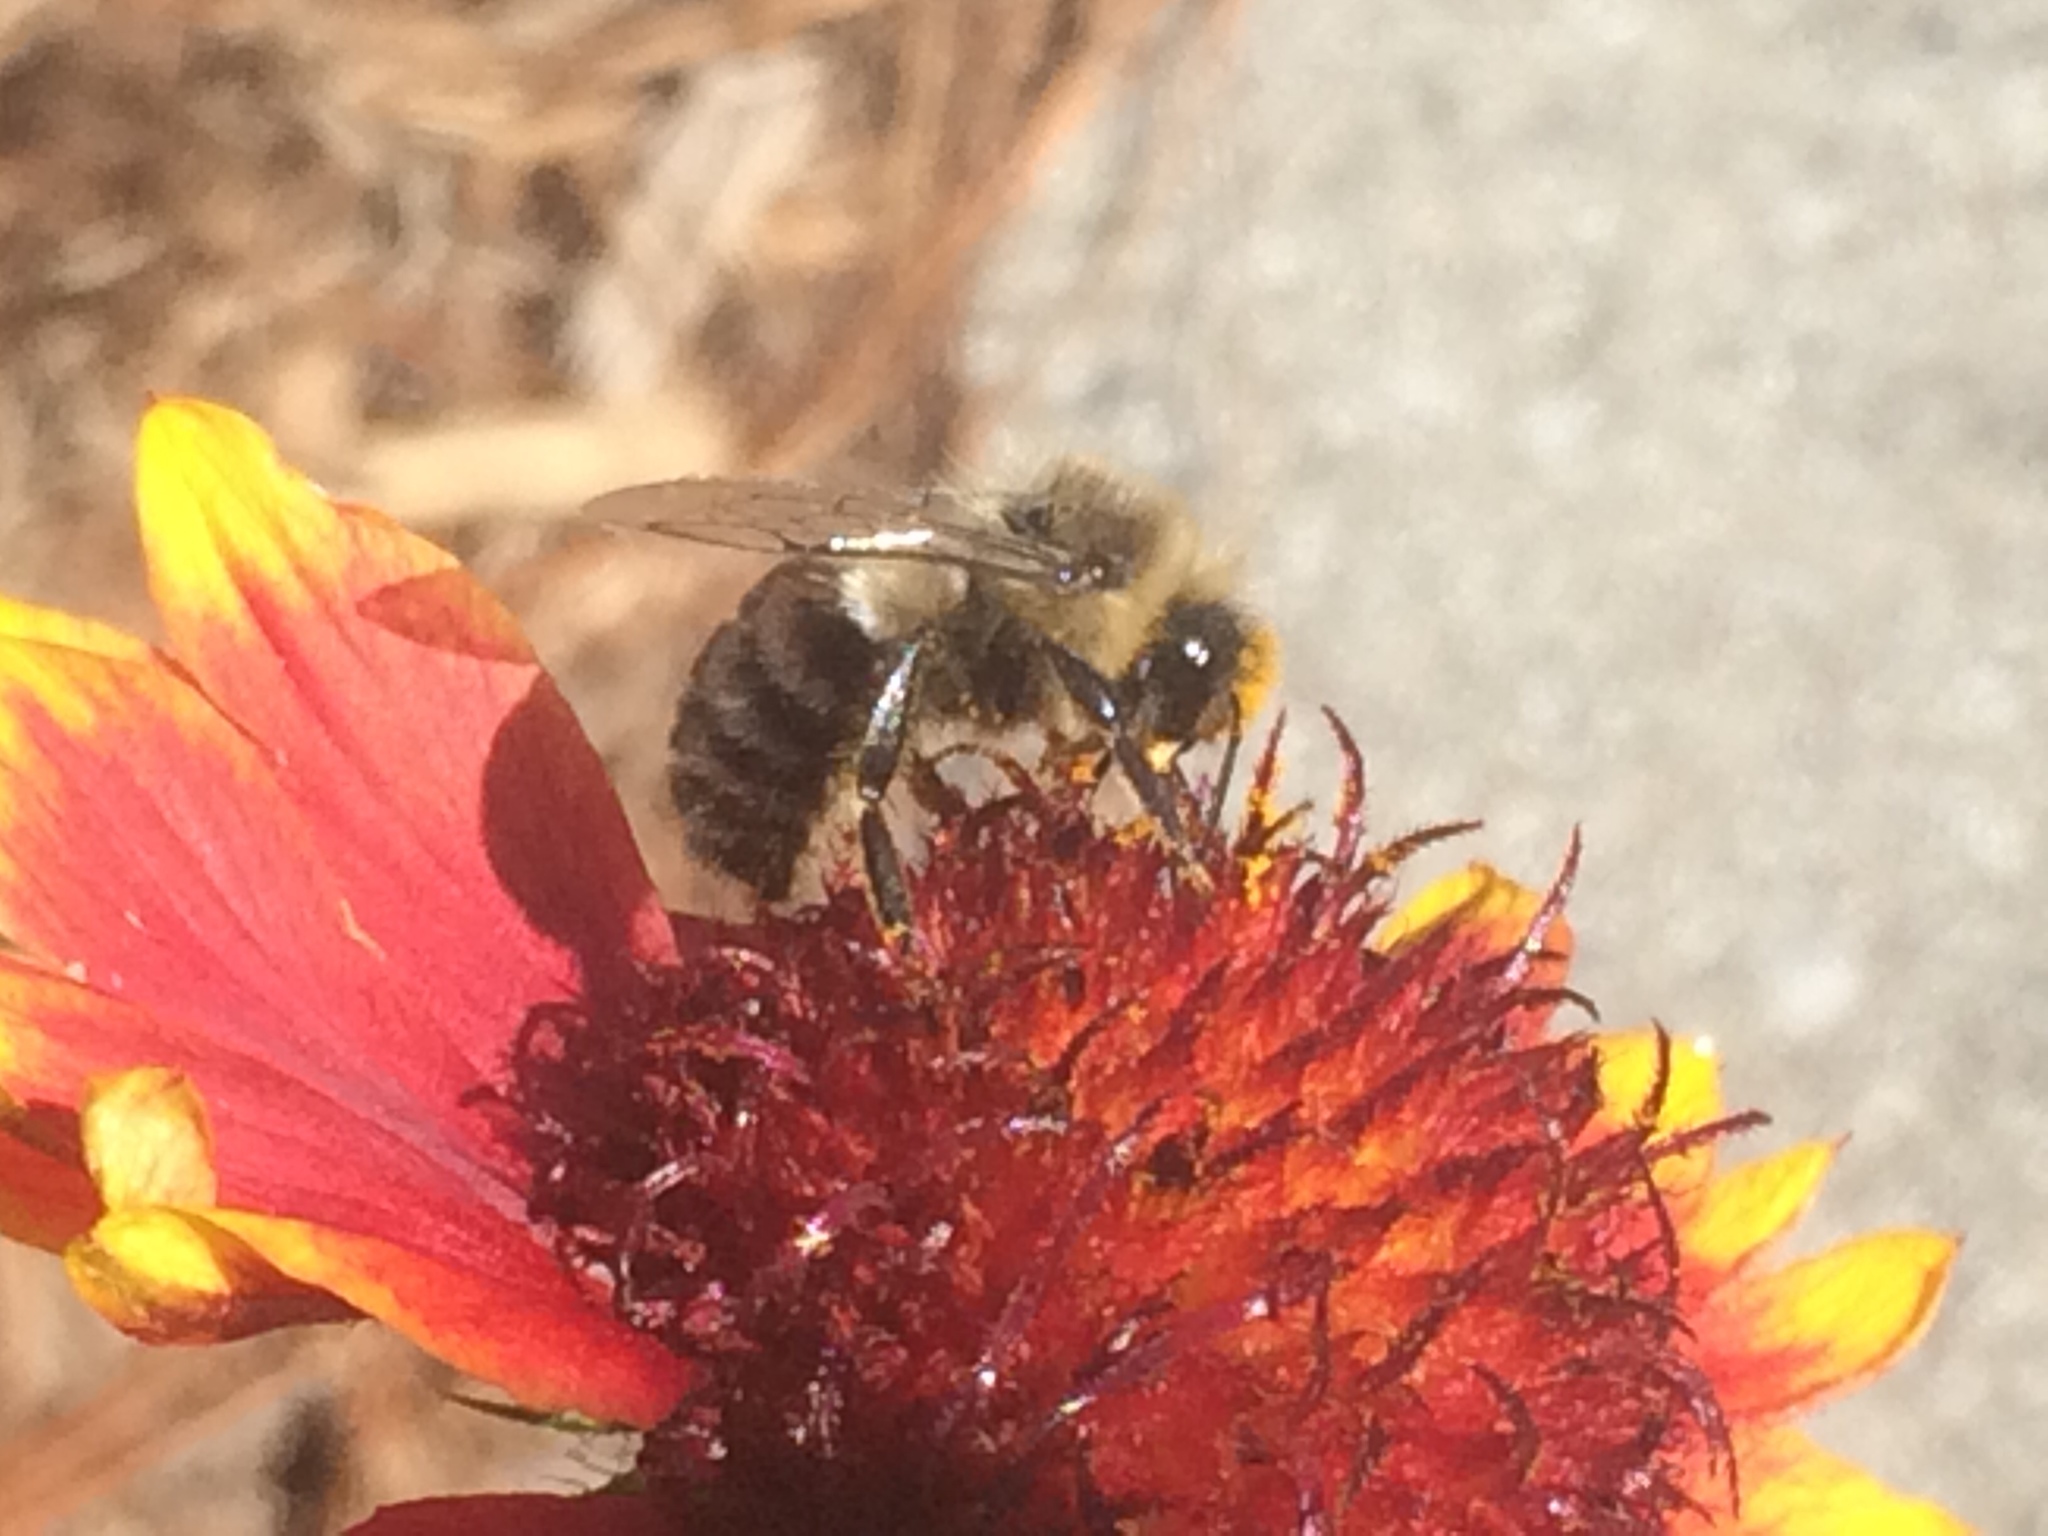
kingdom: Animalia
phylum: Arthropoda
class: Insecta
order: Hymenoptera
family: Apidae
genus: Bombus
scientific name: Bombus impatiens
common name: Common eastern bumble bee
